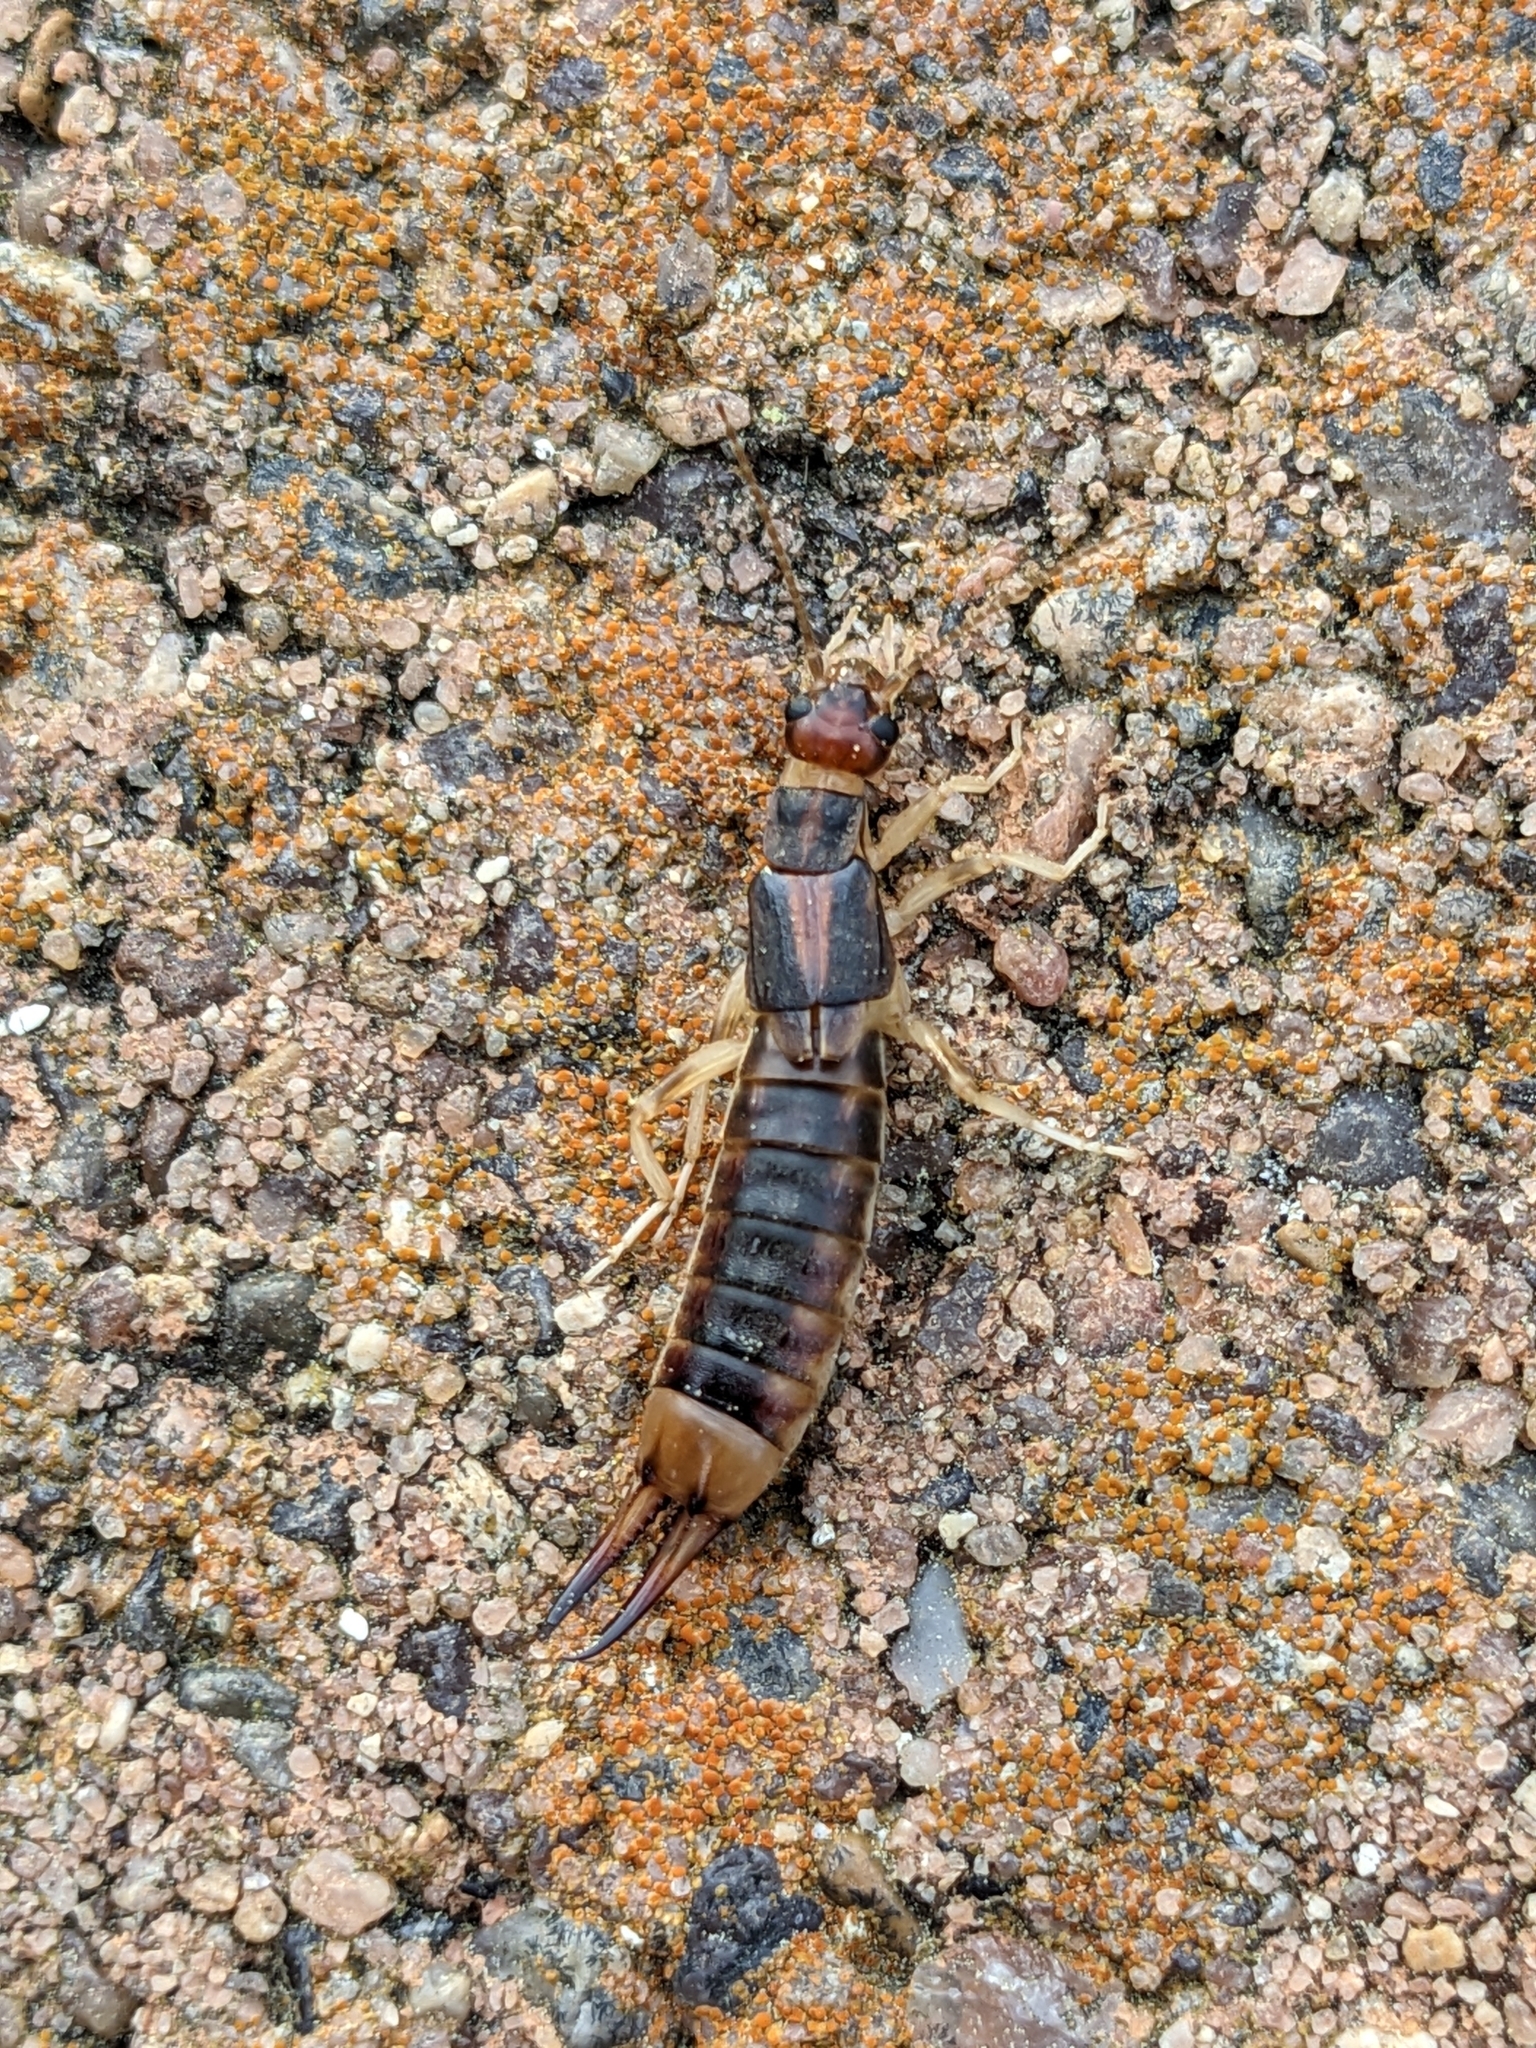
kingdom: Animalia
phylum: Arthropoda
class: Insecta
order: Dermaptera
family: Labiduridae
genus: Labidura
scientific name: Labidura riparia
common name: Striped earwig
